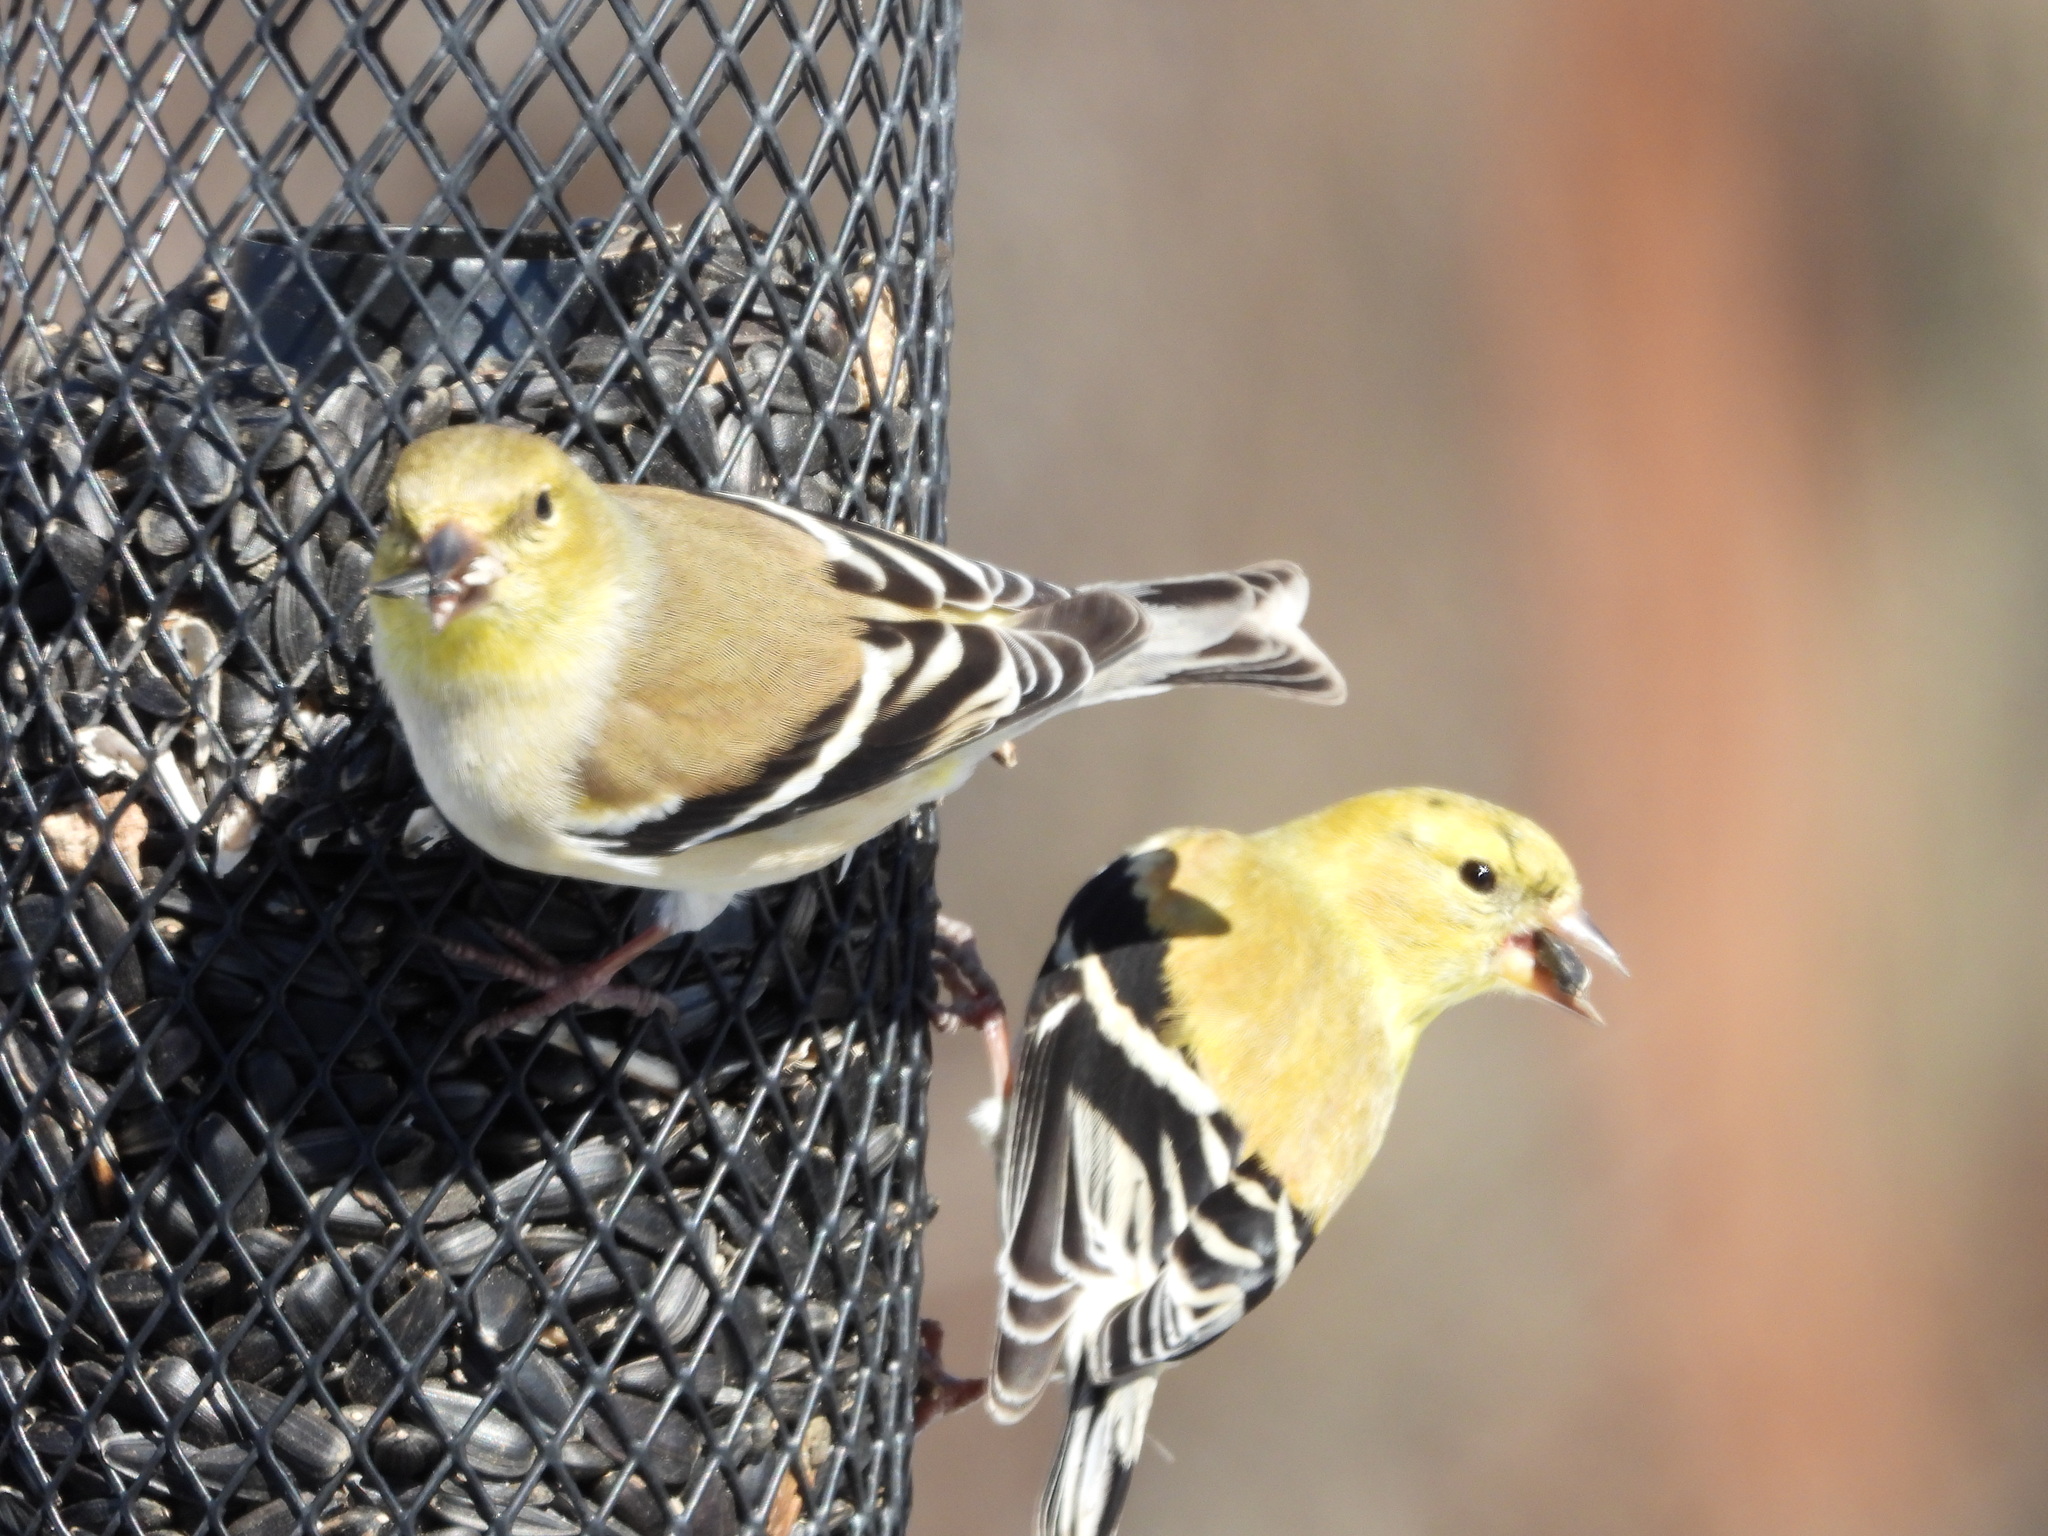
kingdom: Animalia
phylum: Chordata
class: Aves
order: Passeriformes
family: Fringillidae
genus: Spinus
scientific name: Spinus tristis
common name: American goldfinch
